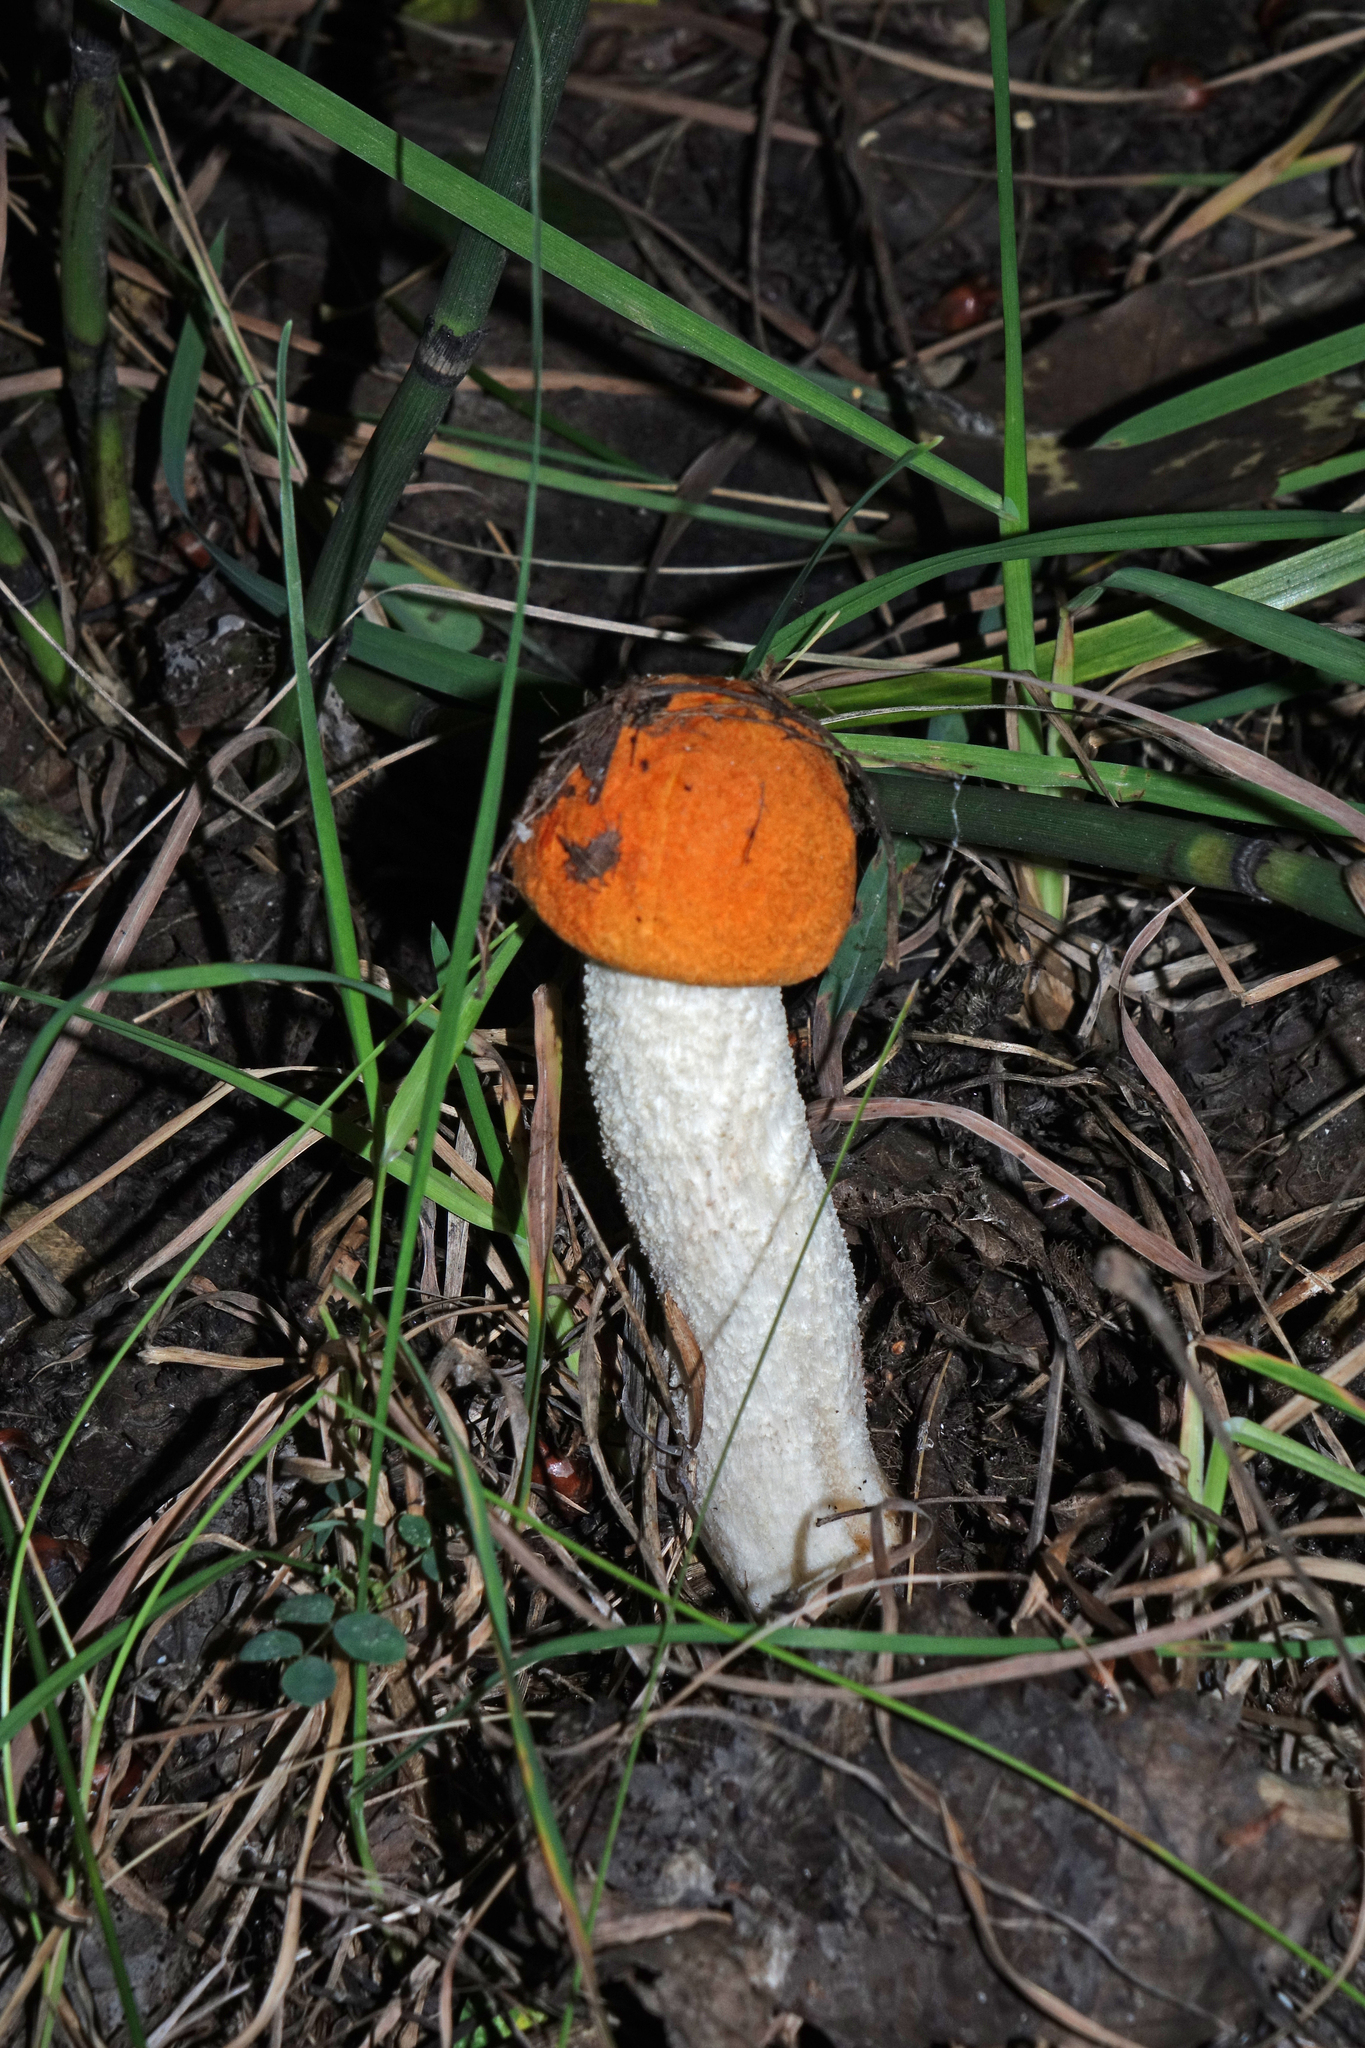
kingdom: Fungi
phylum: Basidiomycota
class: Agaricomycetes
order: Boletales
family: Boletaceae
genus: Leccinum
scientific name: Leccinum albostipitatum
